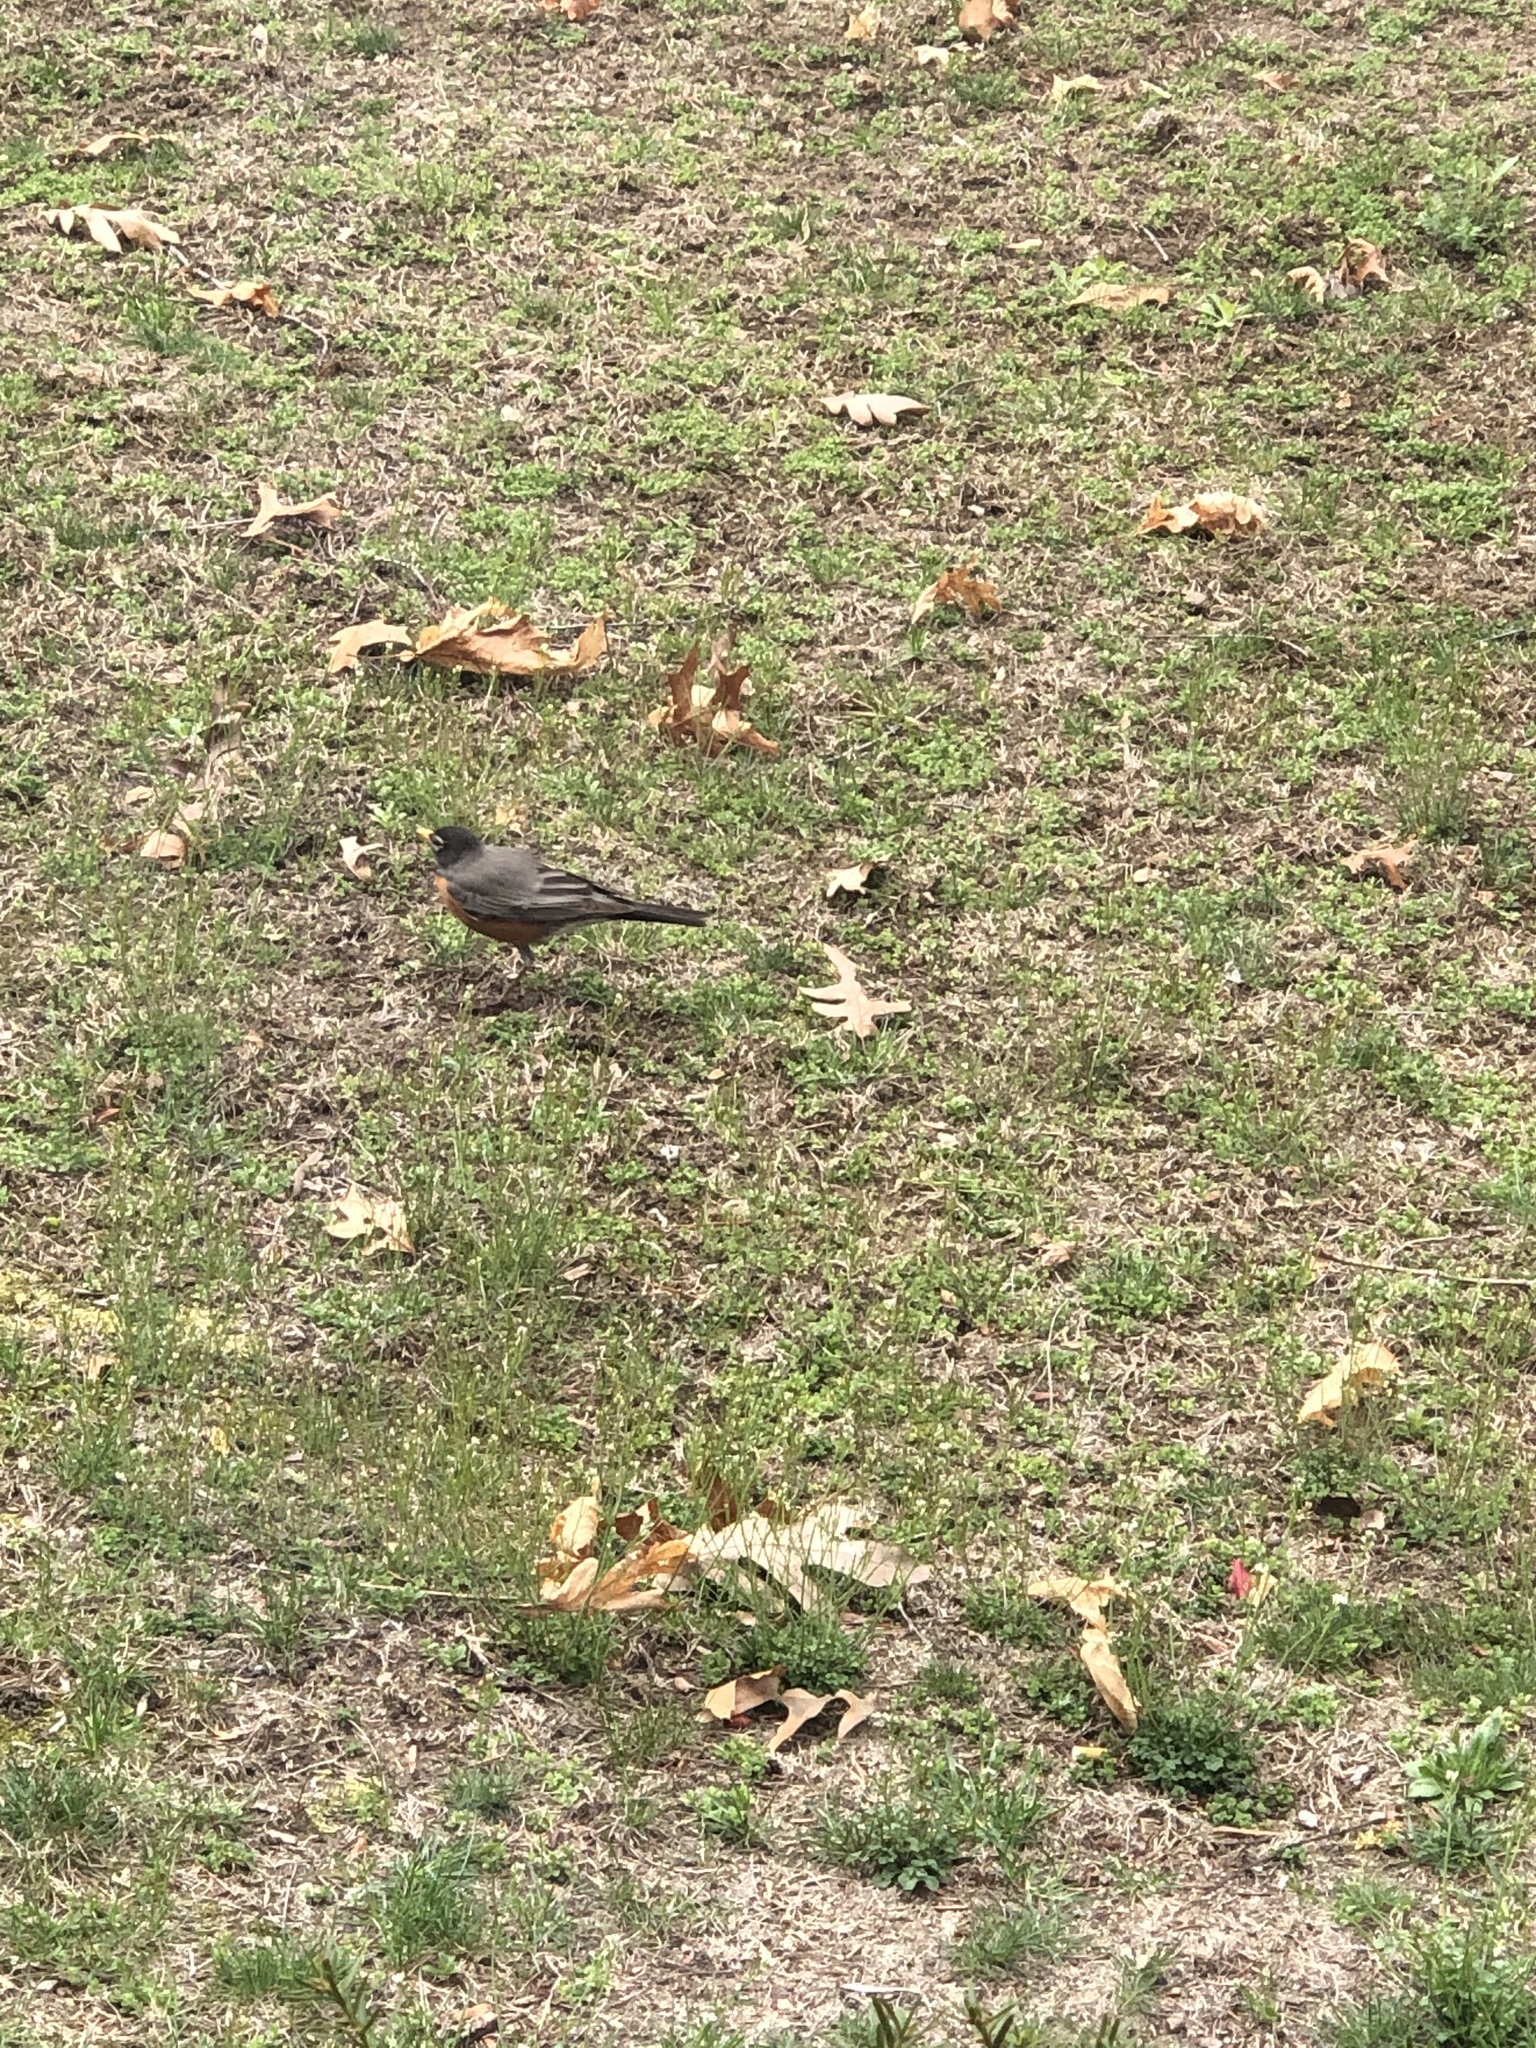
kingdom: Animalia
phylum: Chordata
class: Aves
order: Passeriformes
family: Turdidae
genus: Turdus
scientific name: Turdus migratorius
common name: American robin
